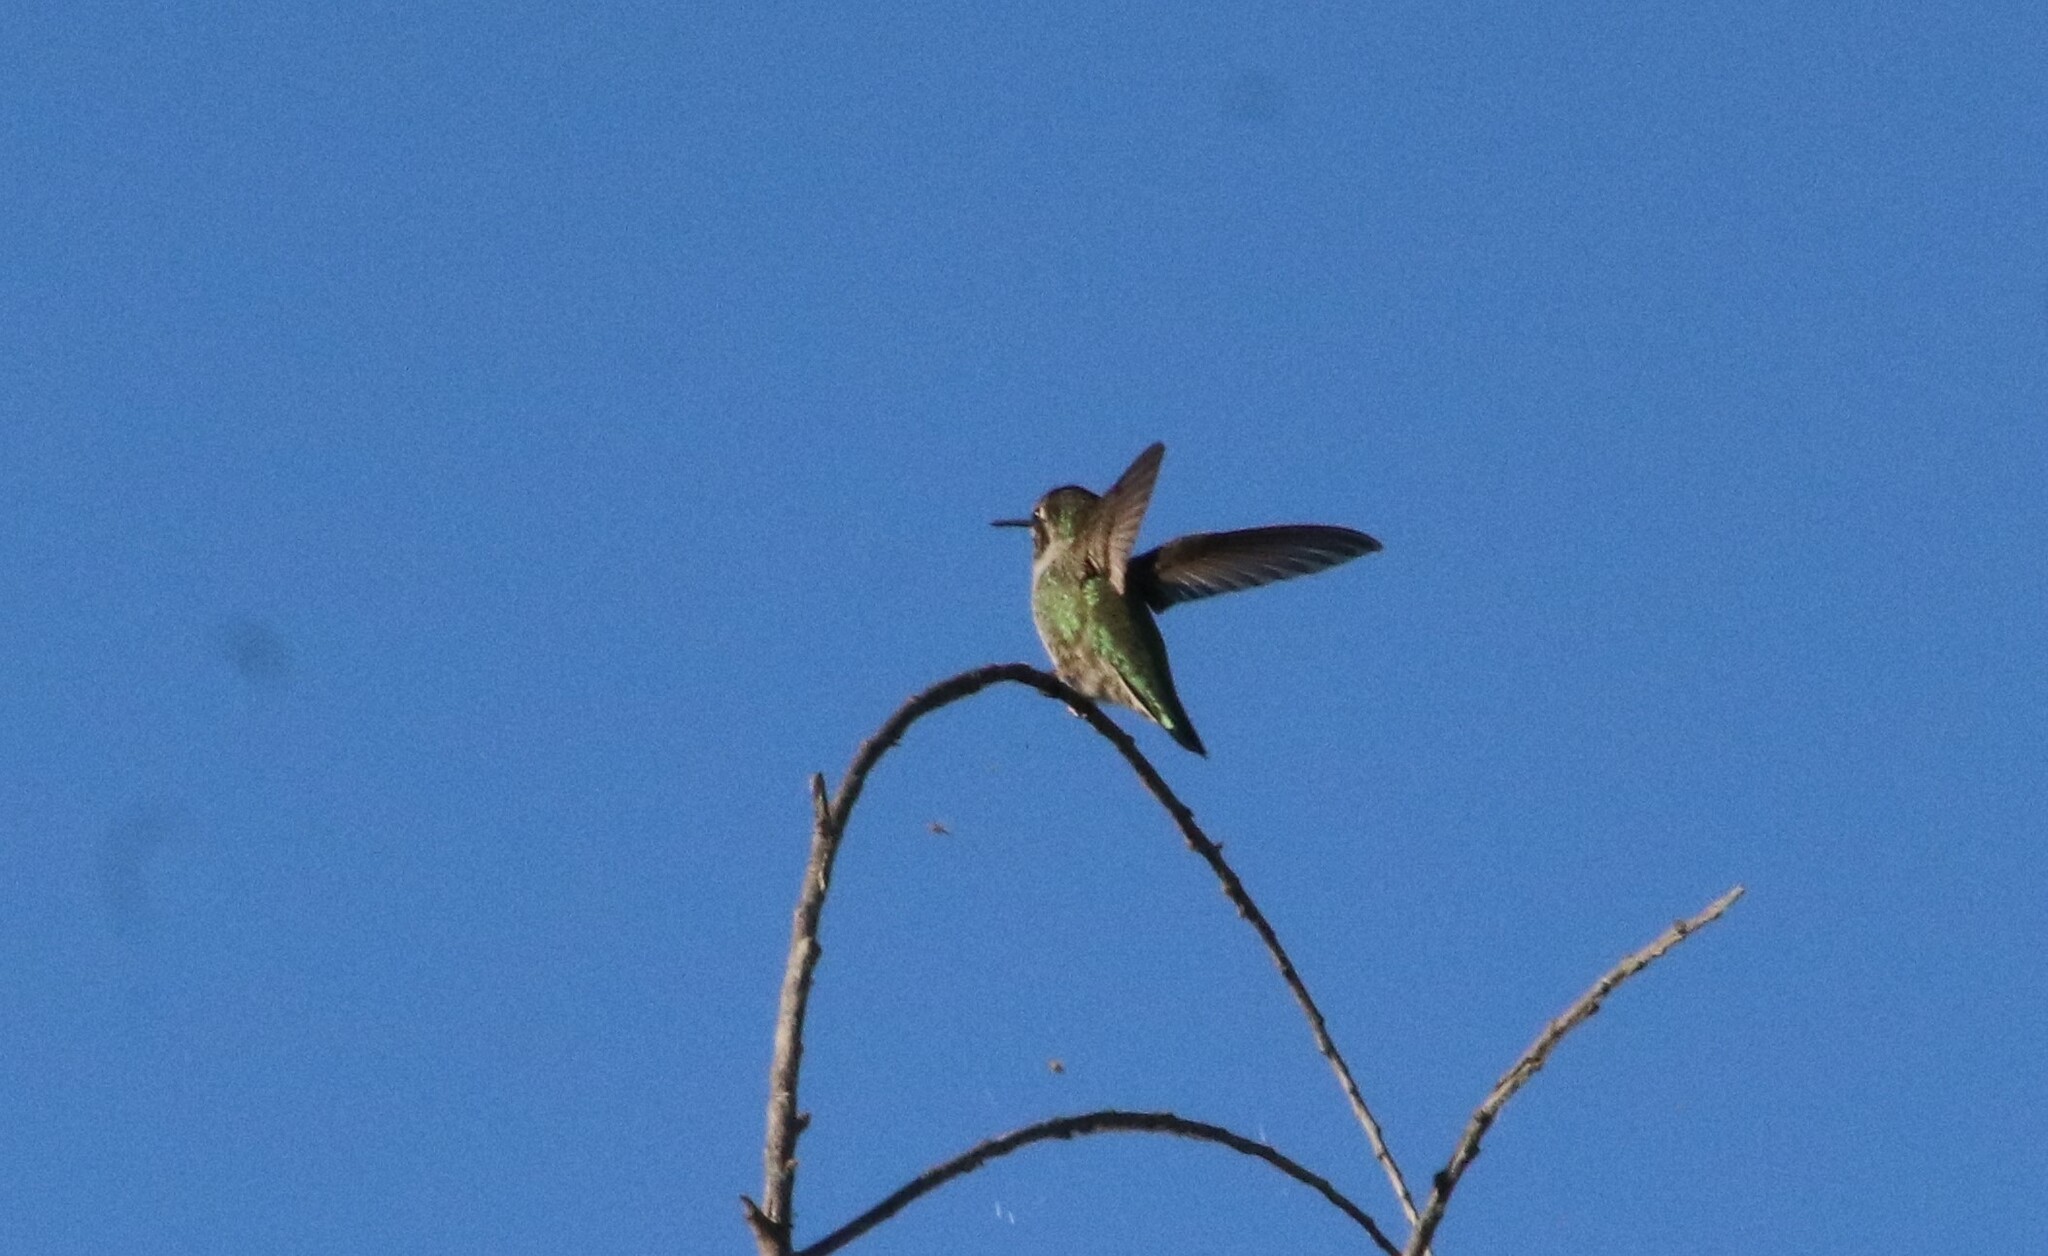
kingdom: Animalia
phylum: Chordata
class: Aves
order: Apodiformes
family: Trochilidae
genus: Calypte
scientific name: Calypte anna
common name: Anna's hummingbird
